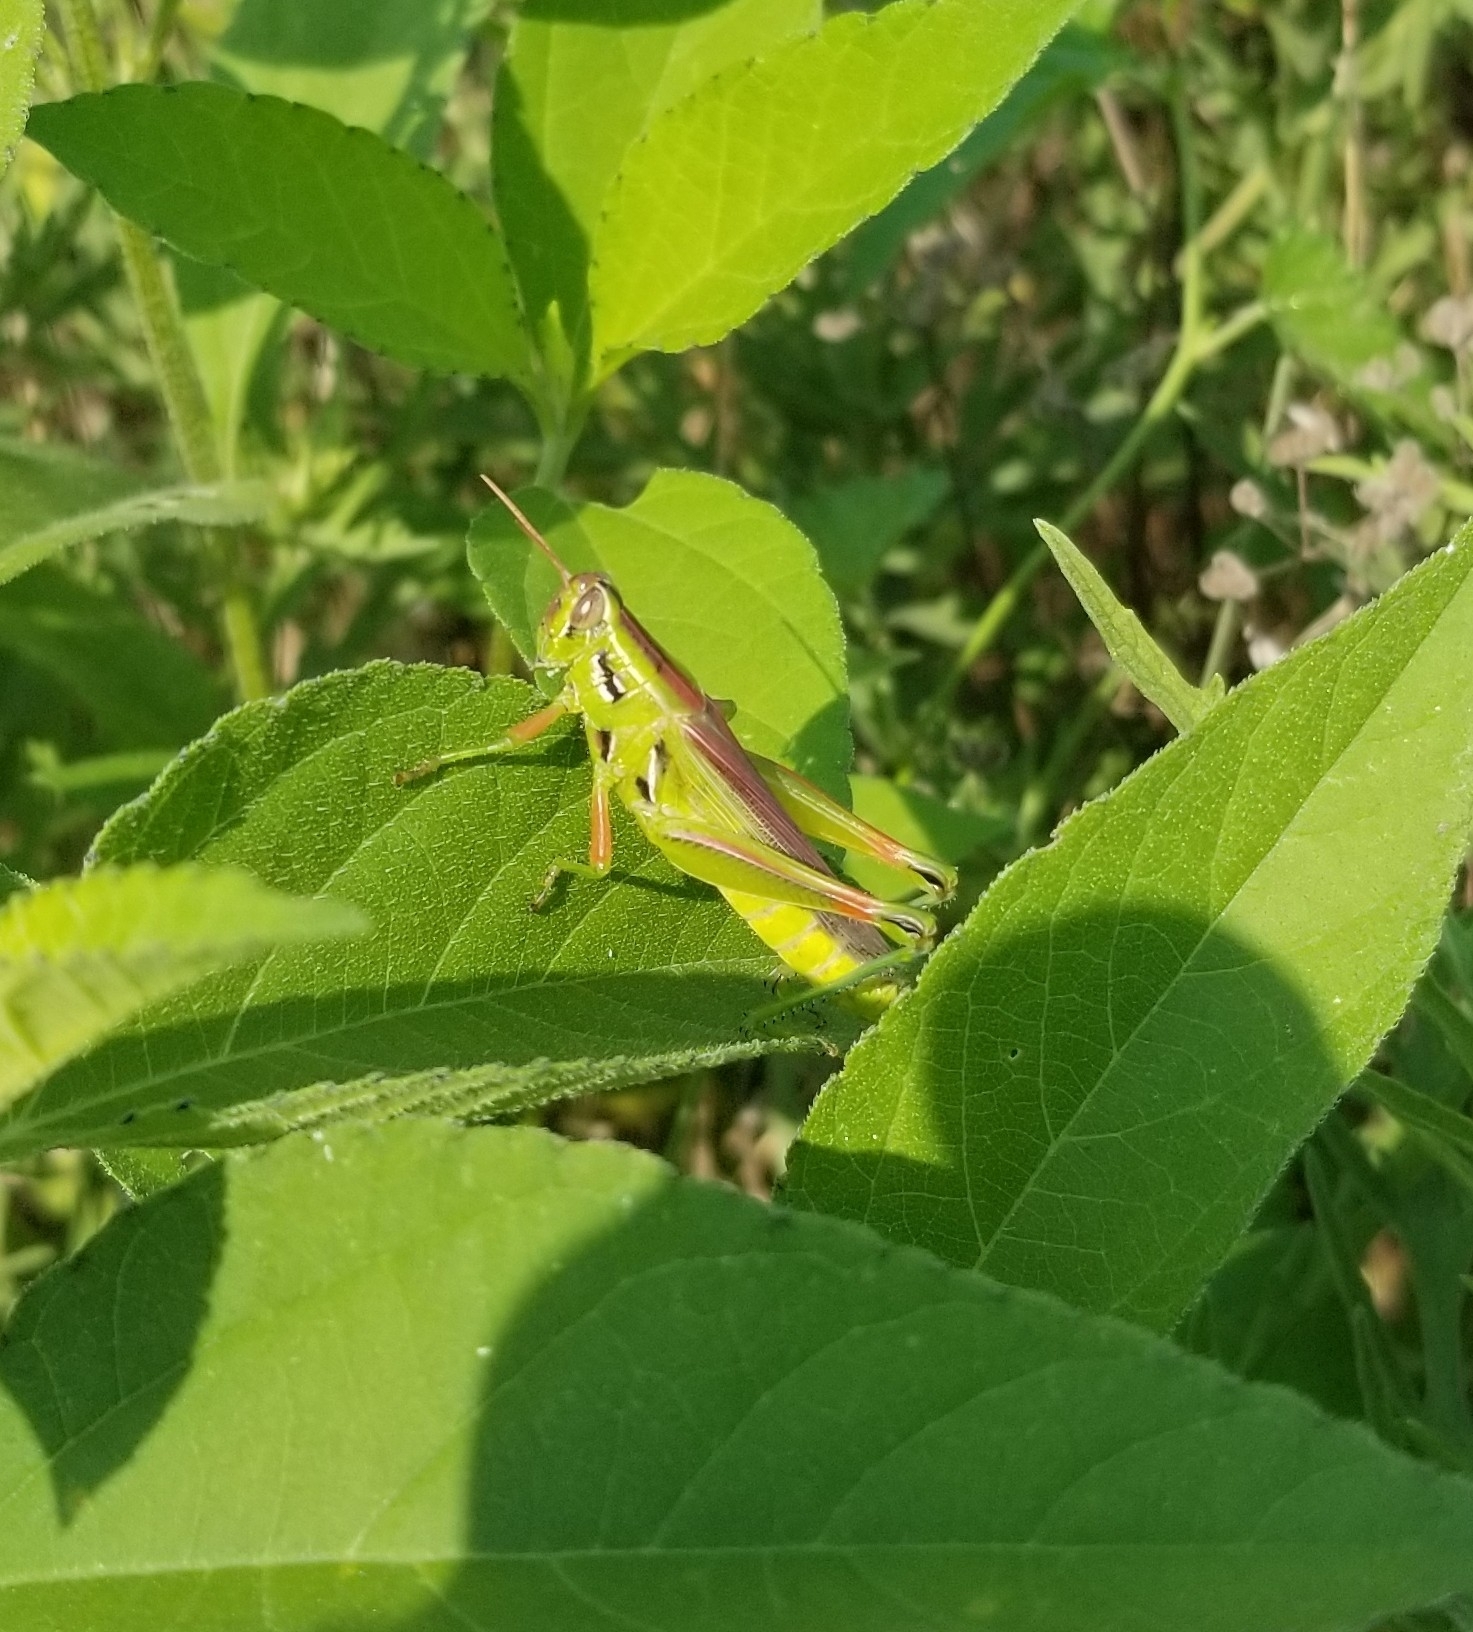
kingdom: Animalia
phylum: Arthropoda
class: Insecta
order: Orthoptera
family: Acrididae
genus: Hesperotettix
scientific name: Hesperotettix viridis
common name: Meadow purple-striped grasshopper
